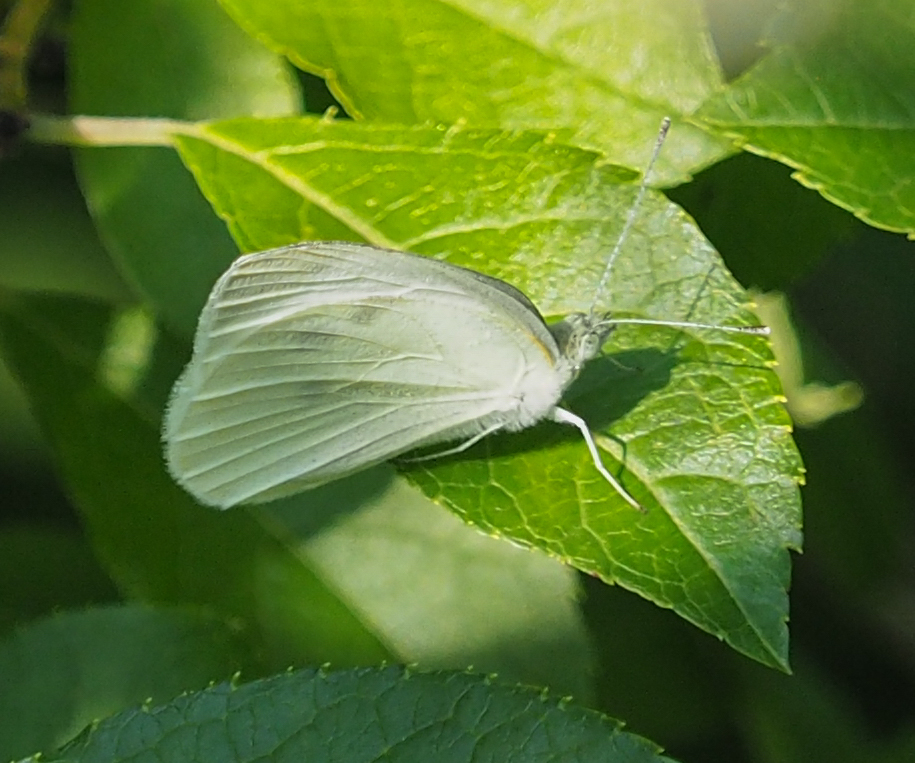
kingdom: Animalia
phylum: Arthropoda
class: Insecta
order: Lepidoptera
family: Pieridae
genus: Pieris
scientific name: Pieris rapae
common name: Small white
